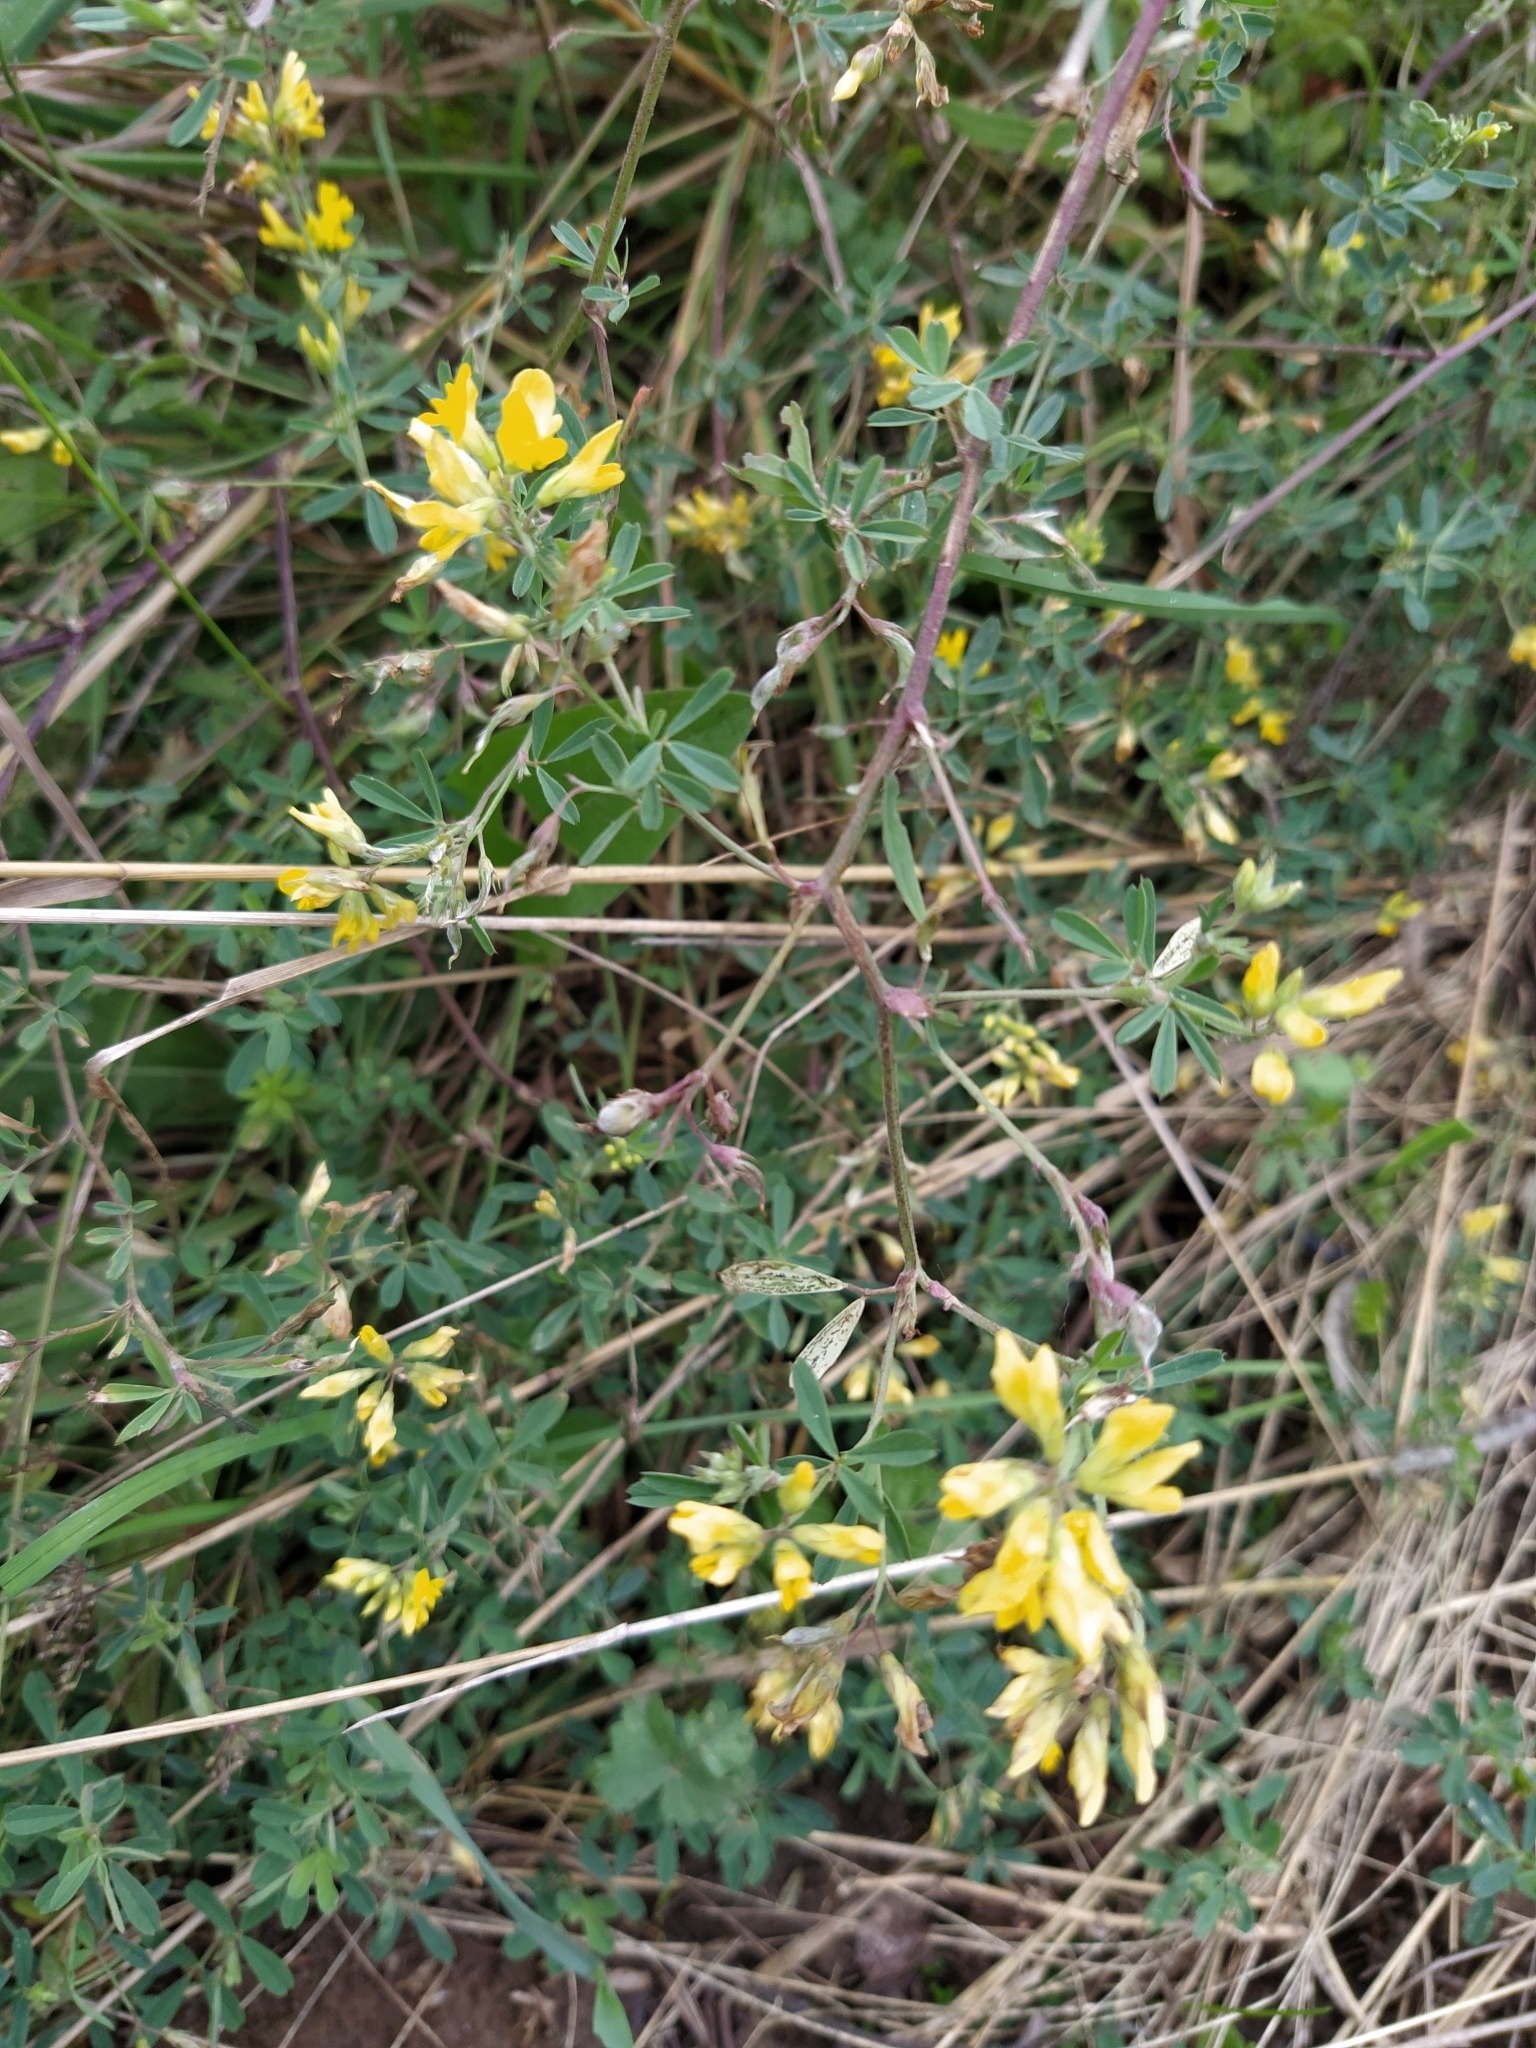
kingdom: Plantae
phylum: Tracheophyta
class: Magnoliopsida
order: Fabales
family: Fabaceae
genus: Lotus
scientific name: Lotus corniculatus
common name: Common bird's-foot-trefoil
